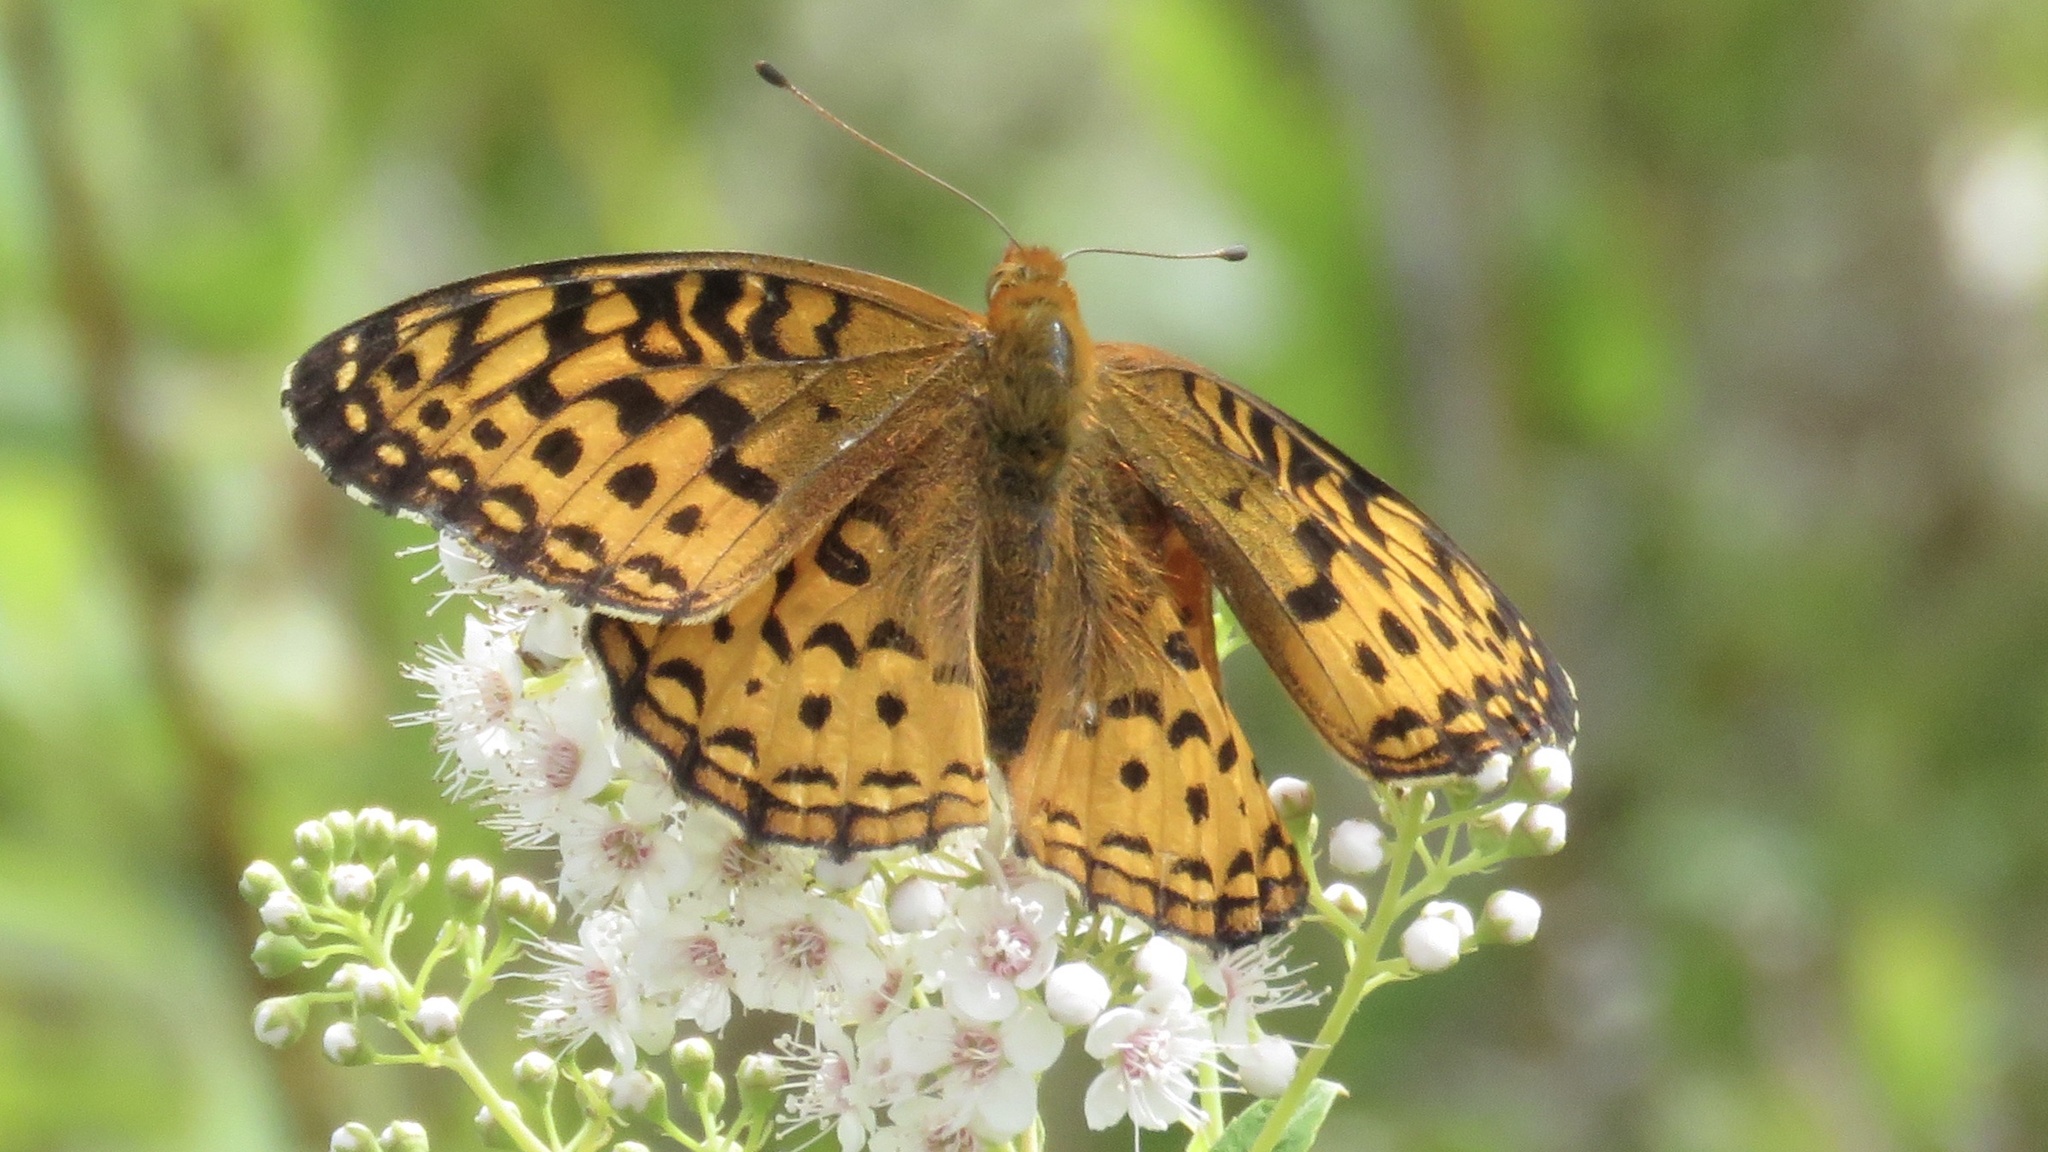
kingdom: Animalia
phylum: Arthropoda
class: Insecta
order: Lepidoptera
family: Nymphalidae
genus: Speyeria
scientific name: Speyeria aphrodite
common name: Aphrodite friitllary
